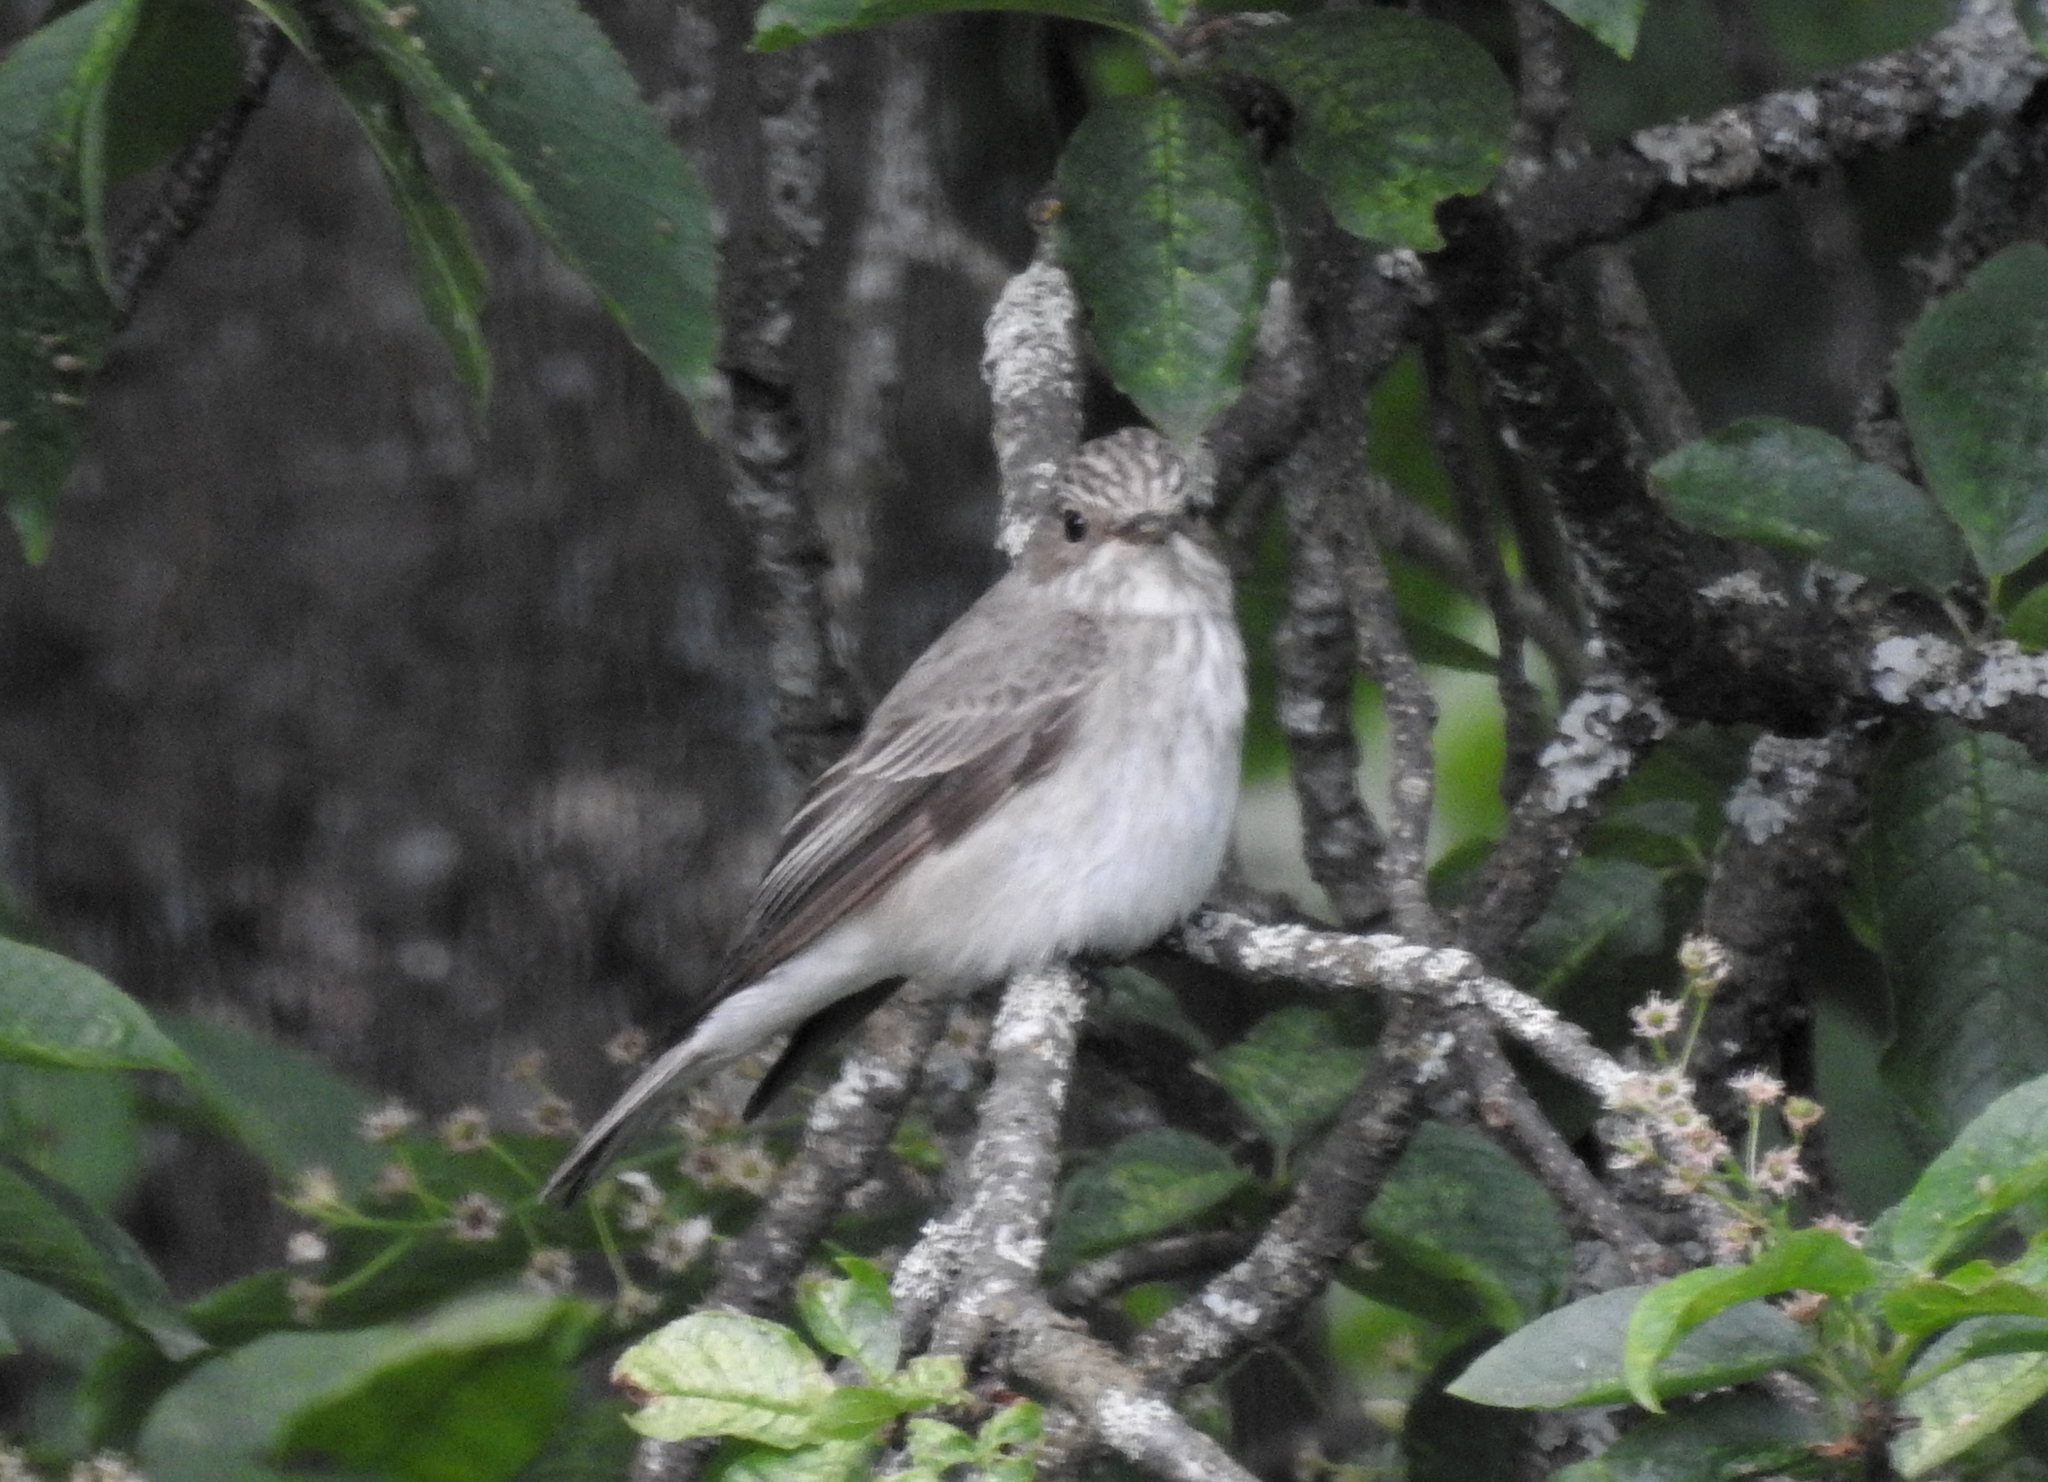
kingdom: Animalia
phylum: Chordata
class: Aves
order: Passeriformes
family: Muscicapidae
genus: Muscicapa
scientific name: Muscicapa striata
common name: Spotted flycatcher
